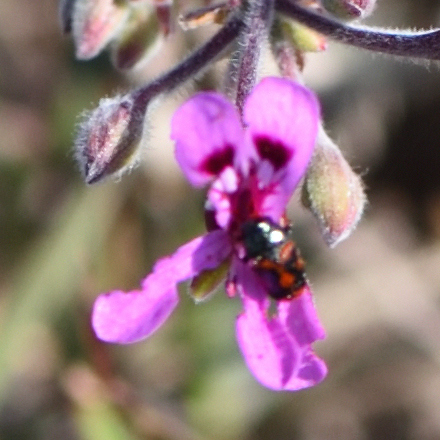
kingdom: Plantae
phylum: Tracheophyta
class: Magnoliopsida
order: Geraniales
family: Geraniaceae
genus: Pelargonium
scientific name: Pelargonium reniforme
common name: Kidney-leaf pelargonium
